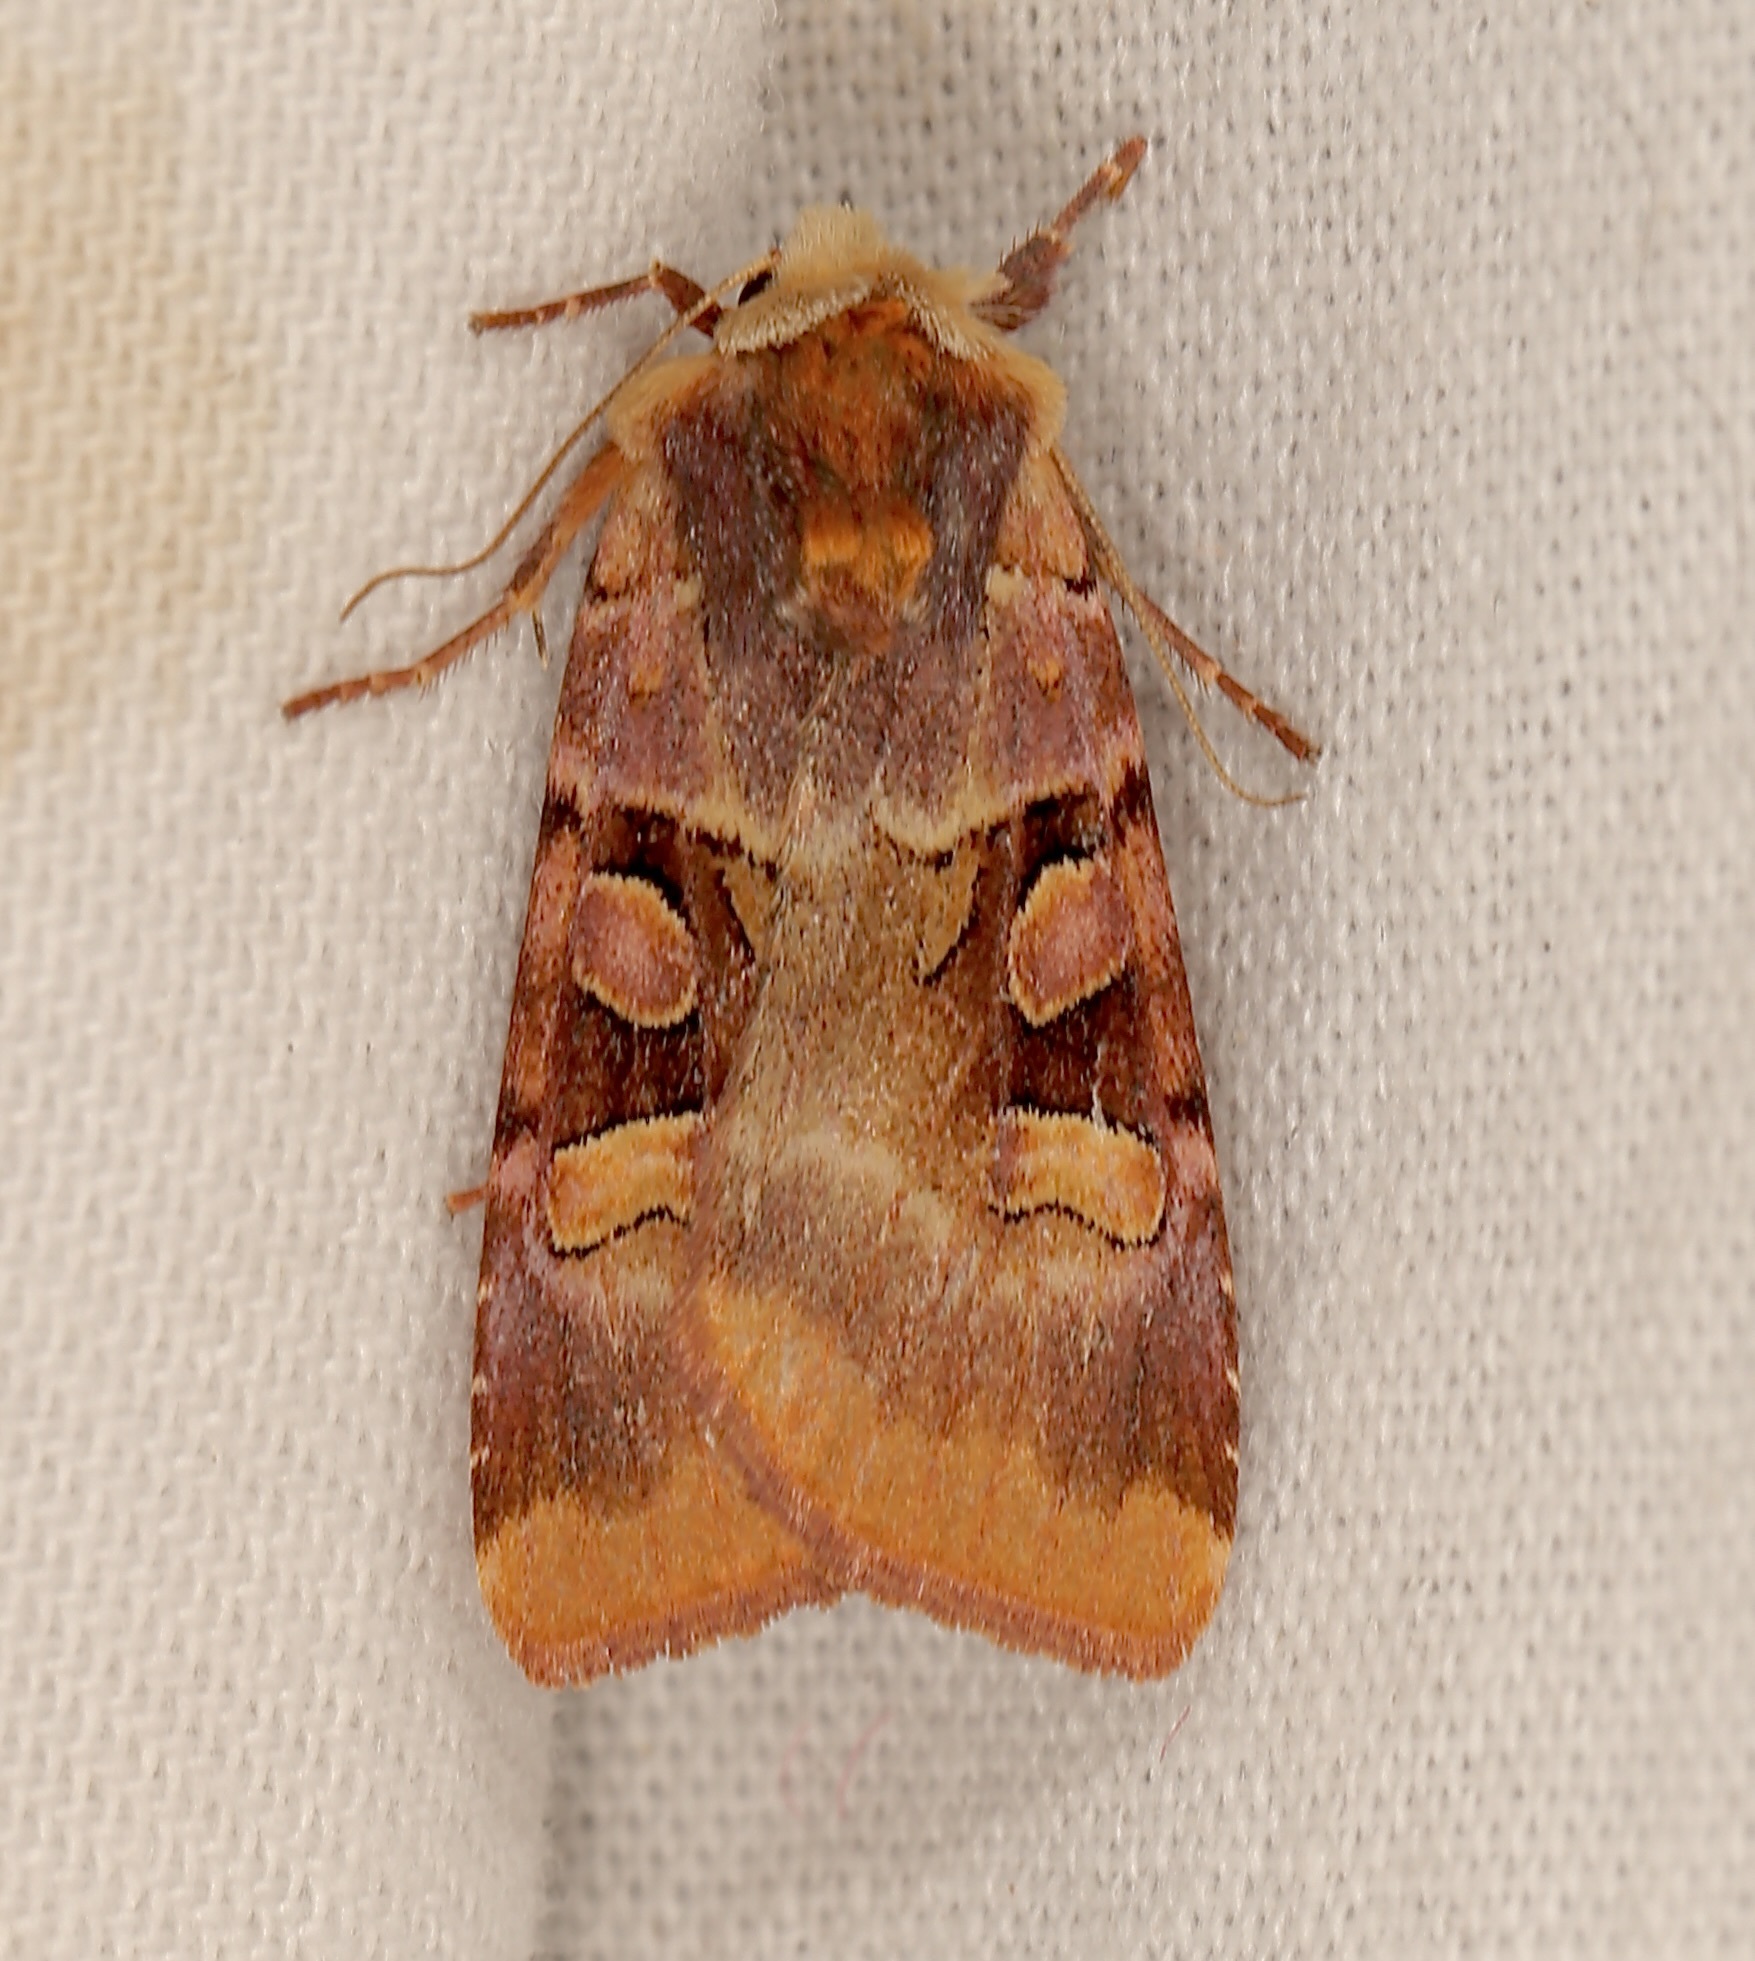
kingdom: Animalia
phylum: Arthropoda
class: Insecta
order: Lepidoptera
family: Noctuidae
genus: Xestia
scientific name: Xestia oblata
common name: Rosy dart
